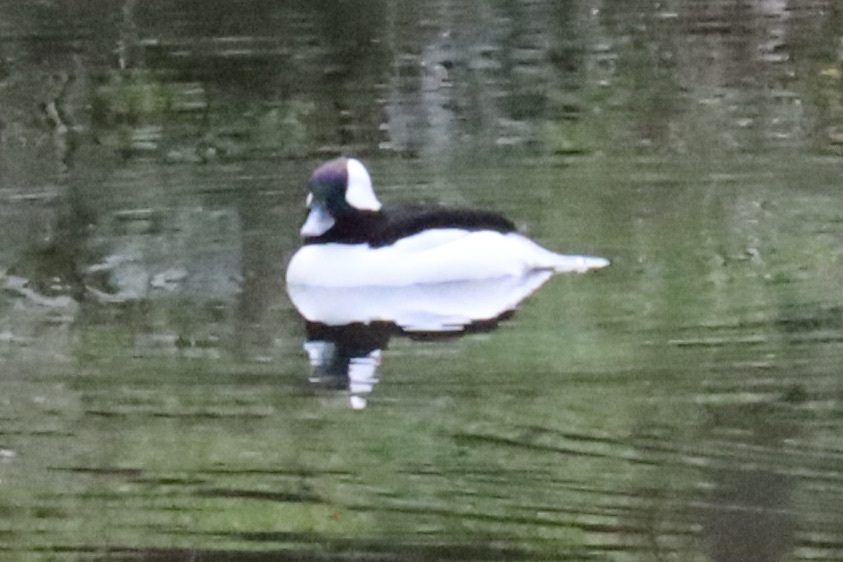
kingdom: Animalia
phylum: Chordata
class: Aves
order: Anseriformes
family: Anatidae
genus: Bucephala
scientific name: Bucephala albeola
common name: Bufflehead
